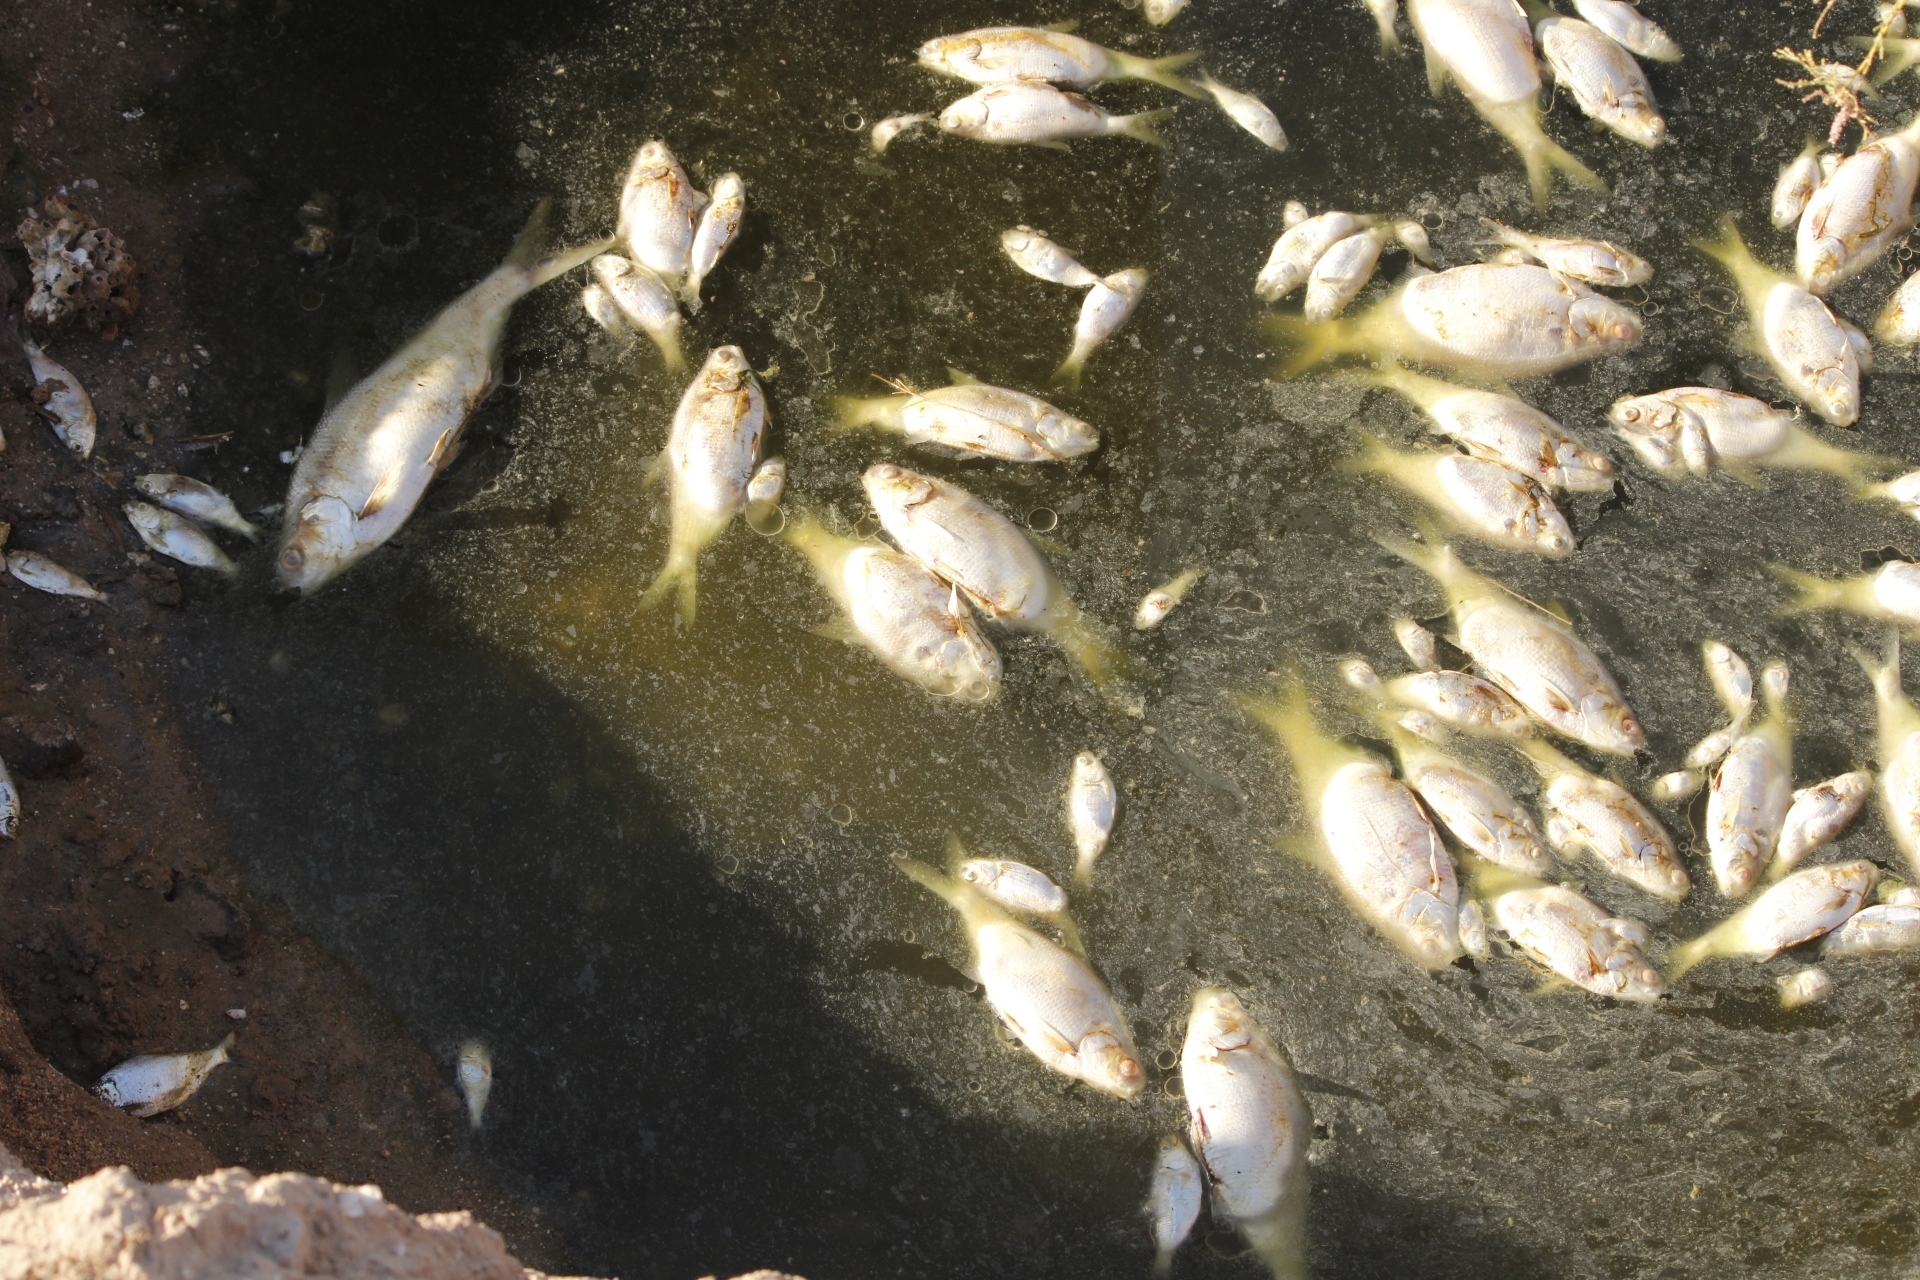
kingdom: Animalia
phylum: Chordata
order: Clupeiformes
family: Clupeidae
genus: Dorosoma
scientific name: Dorosoma cepedianum
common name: Gizzard shad
